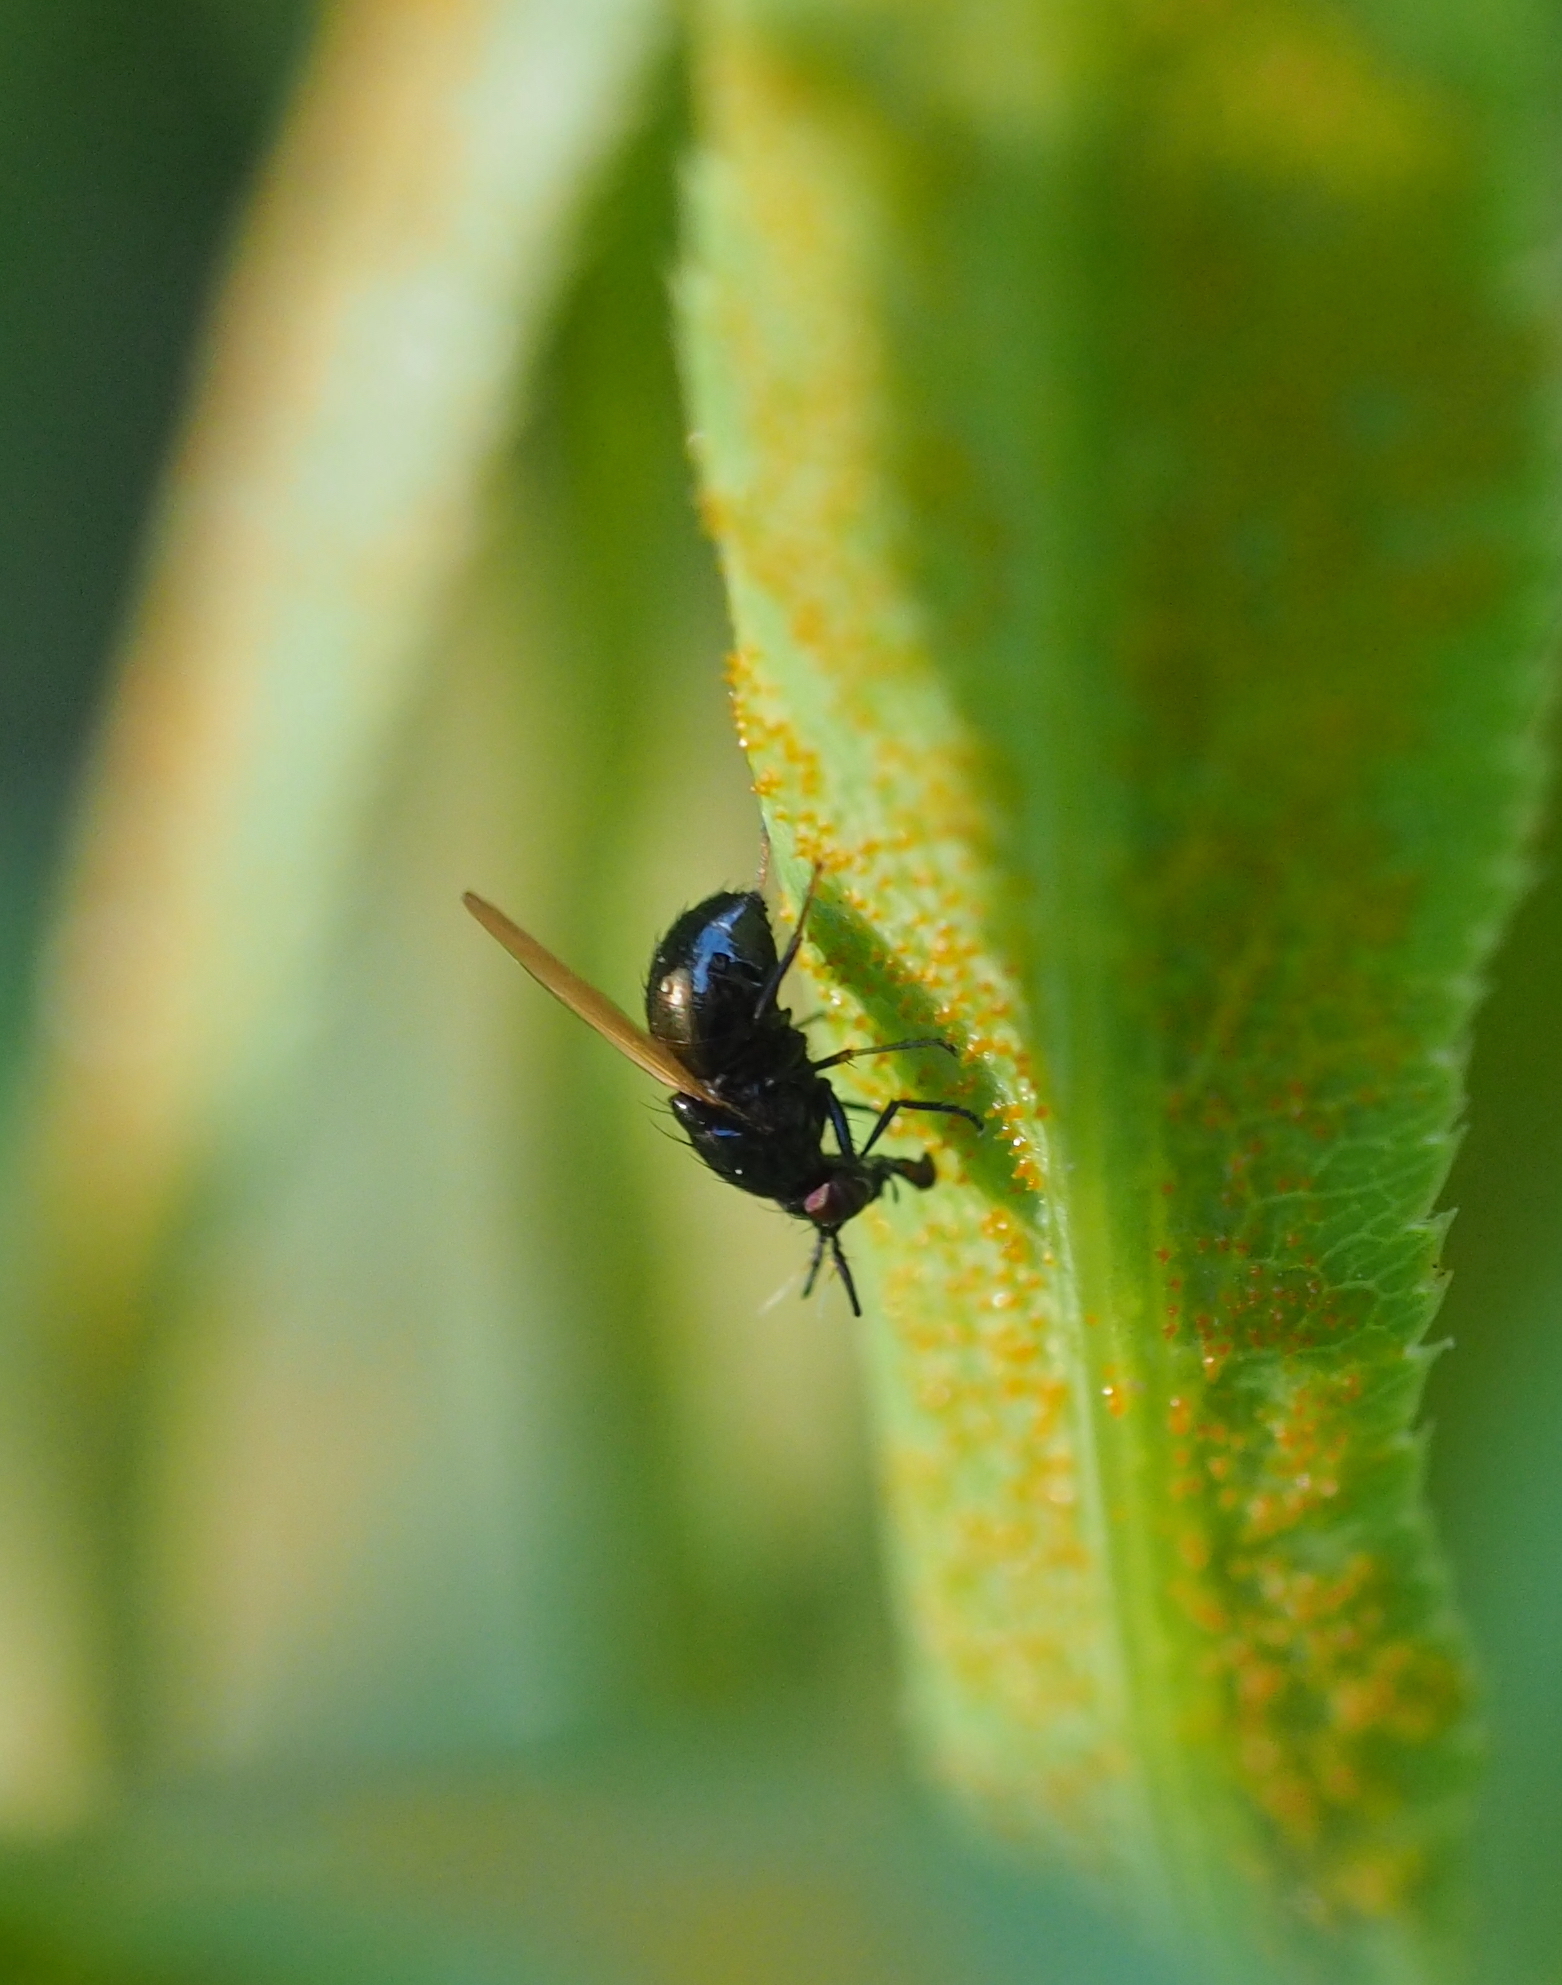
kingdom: Animalia
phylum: Arthropoda
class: Insecta
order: Diptera
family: Lauxaniidae
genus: Lauxania
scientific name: Lauxania minor
